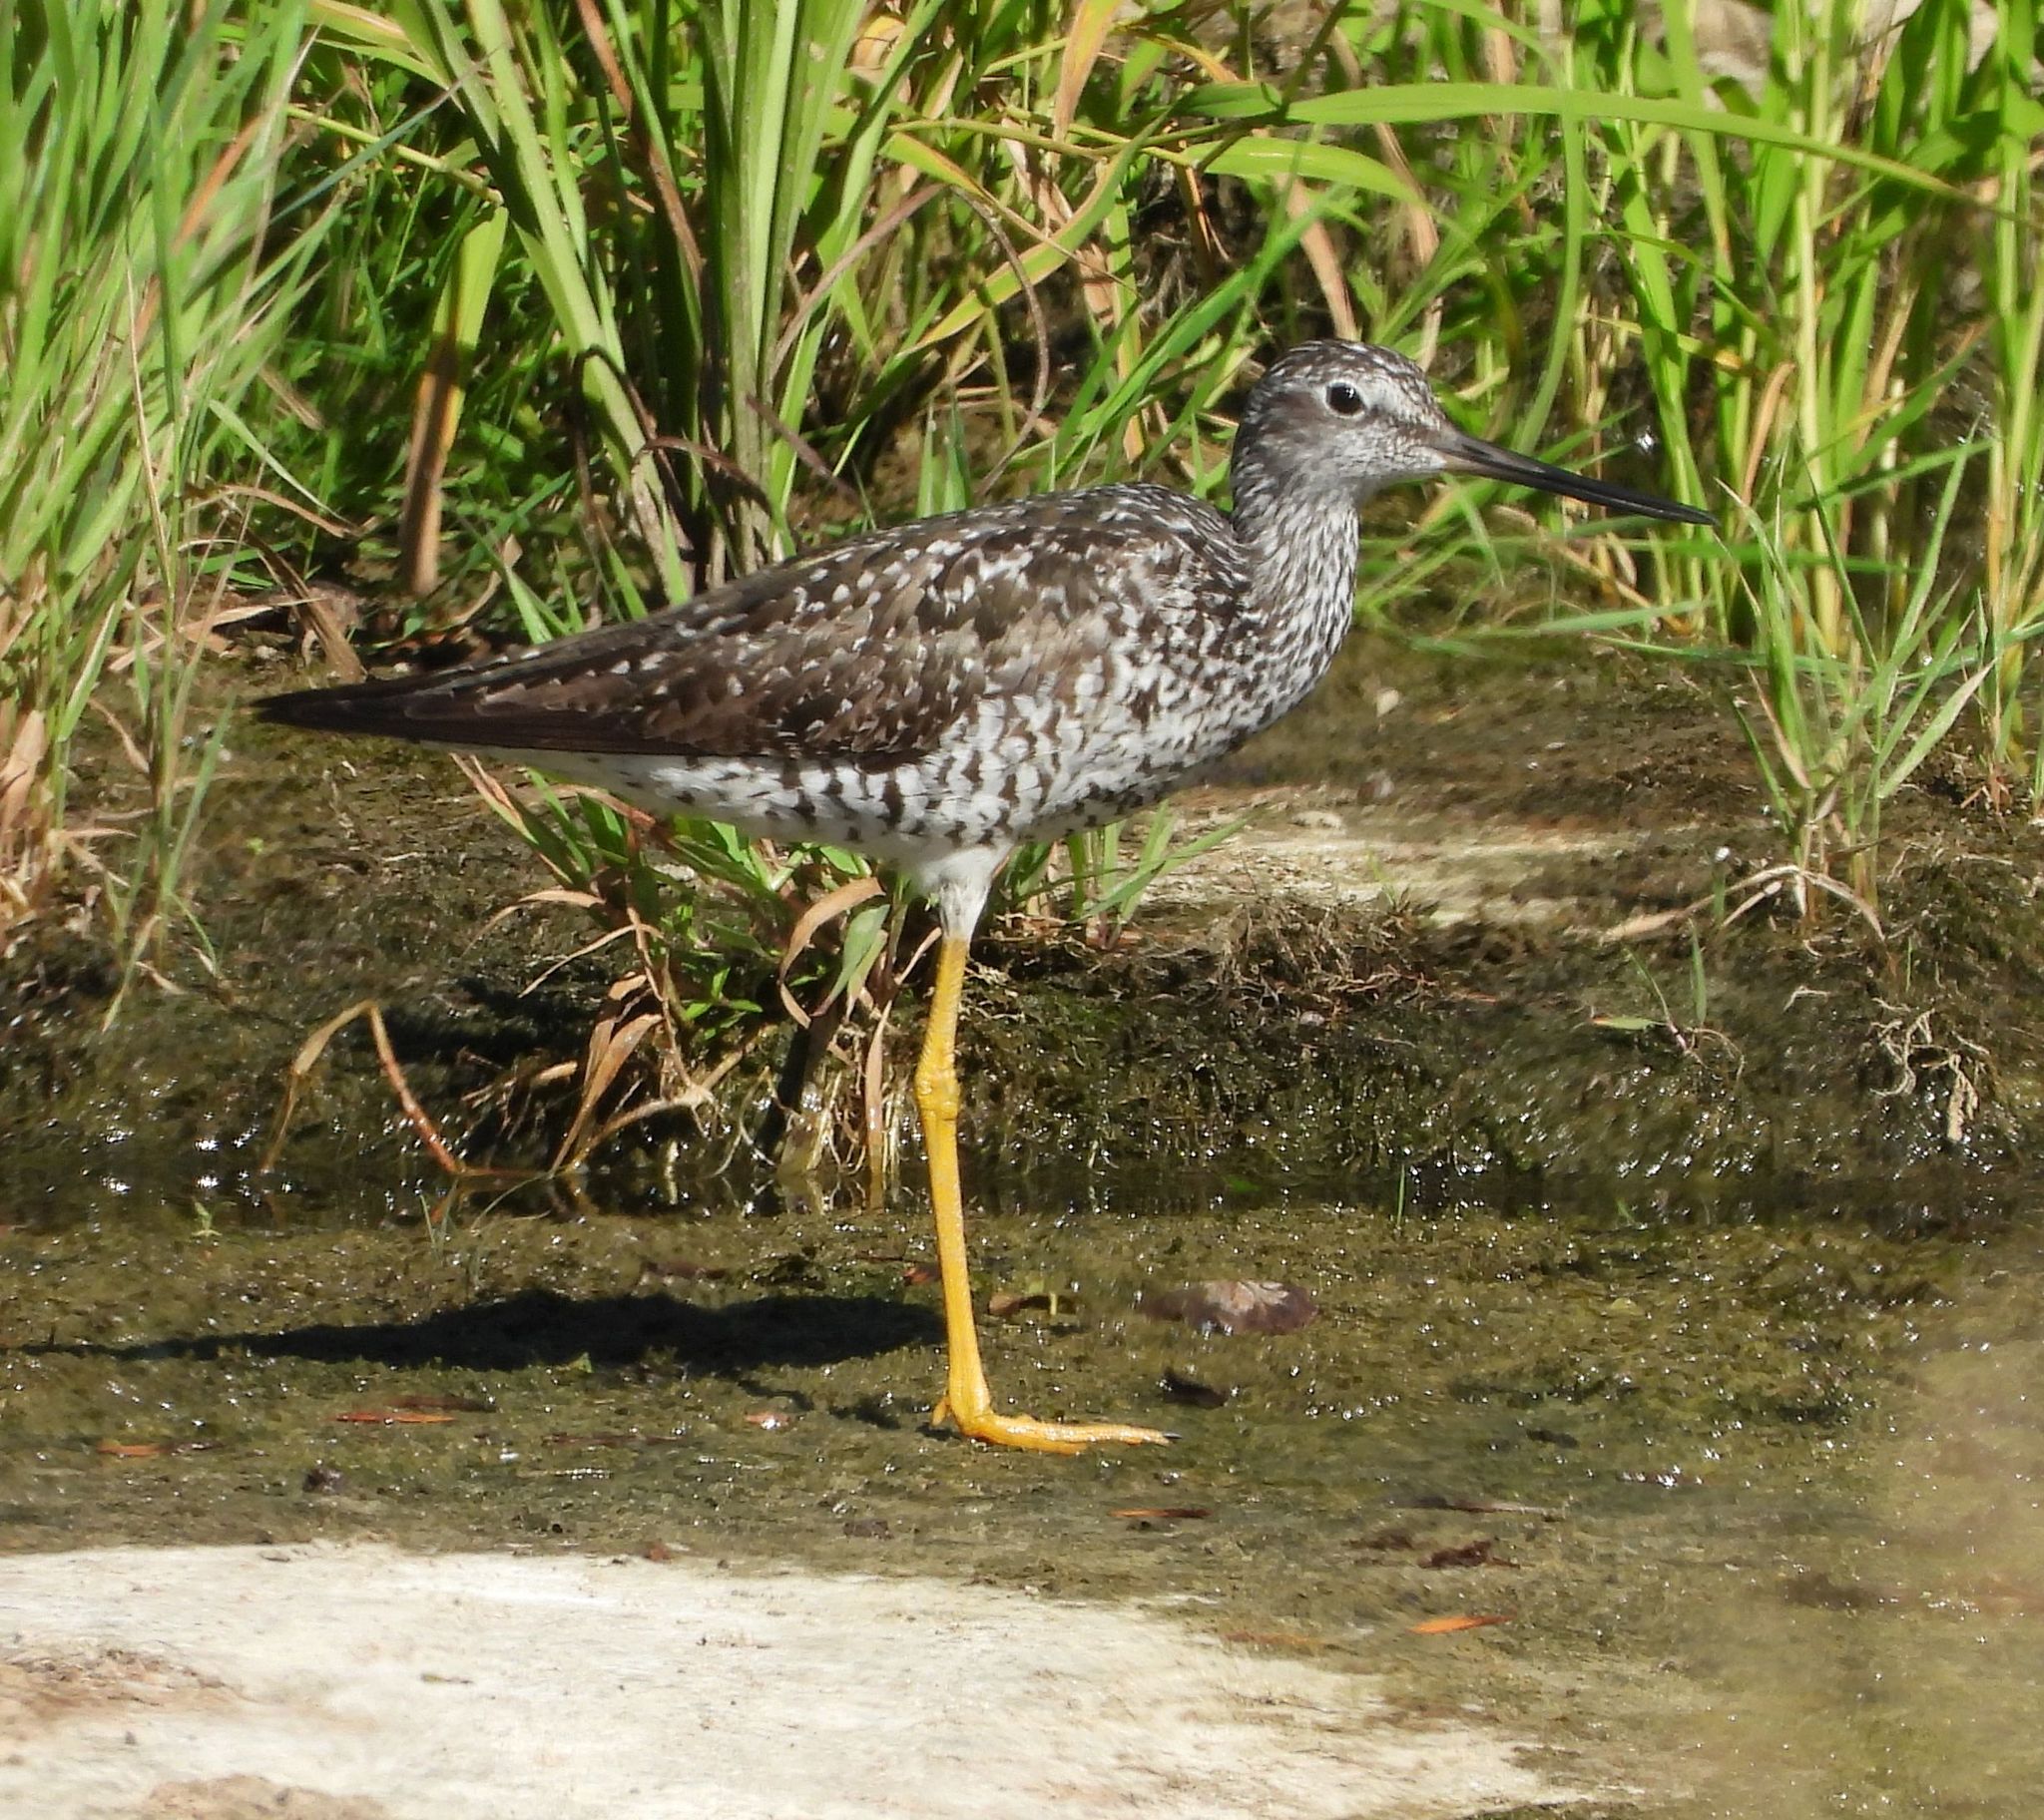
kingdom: Animalia
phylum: Chordata
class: Aves
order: Charadriiformes
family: Scolopacidae
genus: Tringa
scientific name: Tringa melanoleuca
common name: Greater yellowlegs
